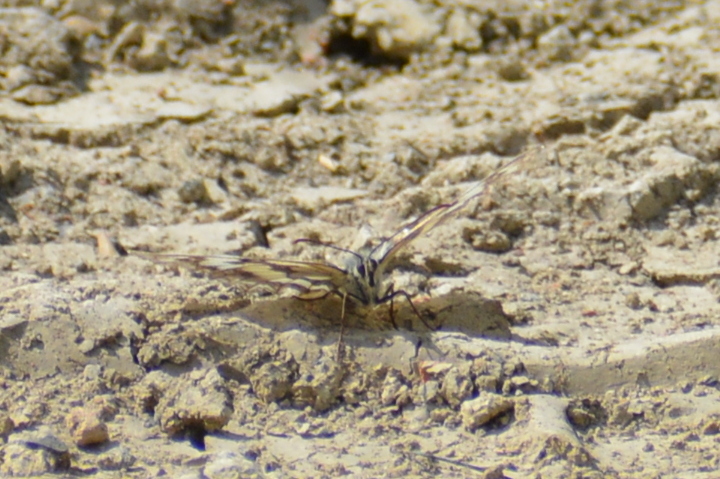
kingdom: Animalia
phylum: Arthropoda
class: Insecta
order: Lepidoptera
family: Nymphalidae
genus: Melanargia
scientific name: Melanargia galathea
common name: Marbled white
